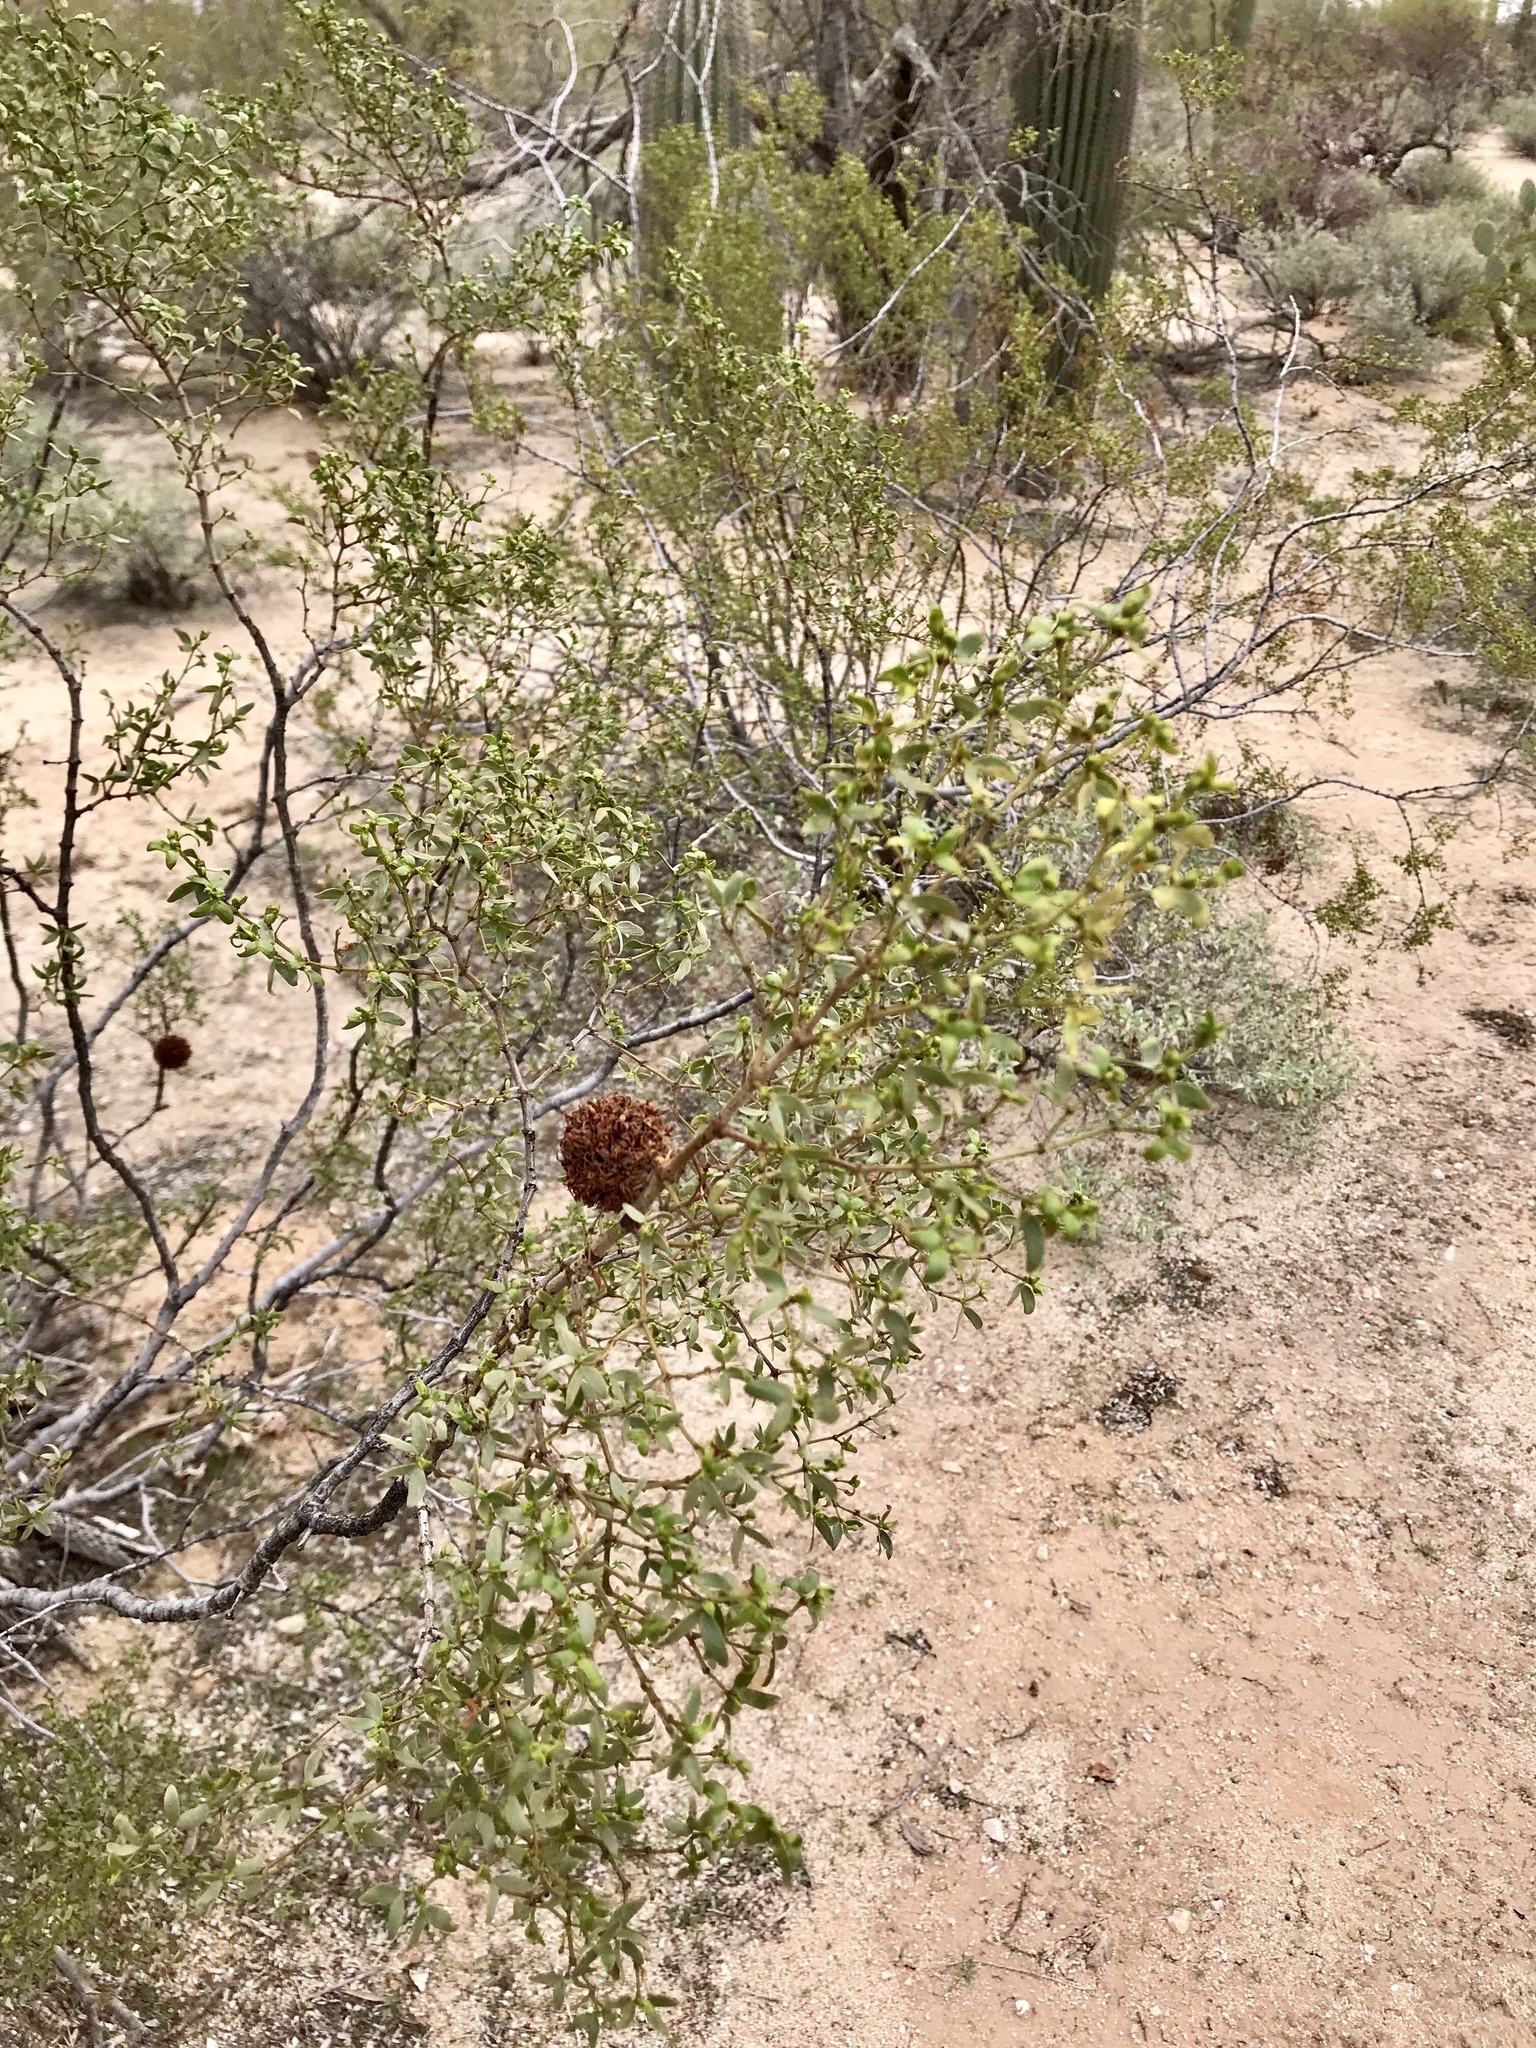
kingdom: Animalia
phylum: Arthropoda
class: Insecta
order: Diptera
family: Cecidomyiidae
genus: Asphondylia
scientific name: Asphondylia auripila
